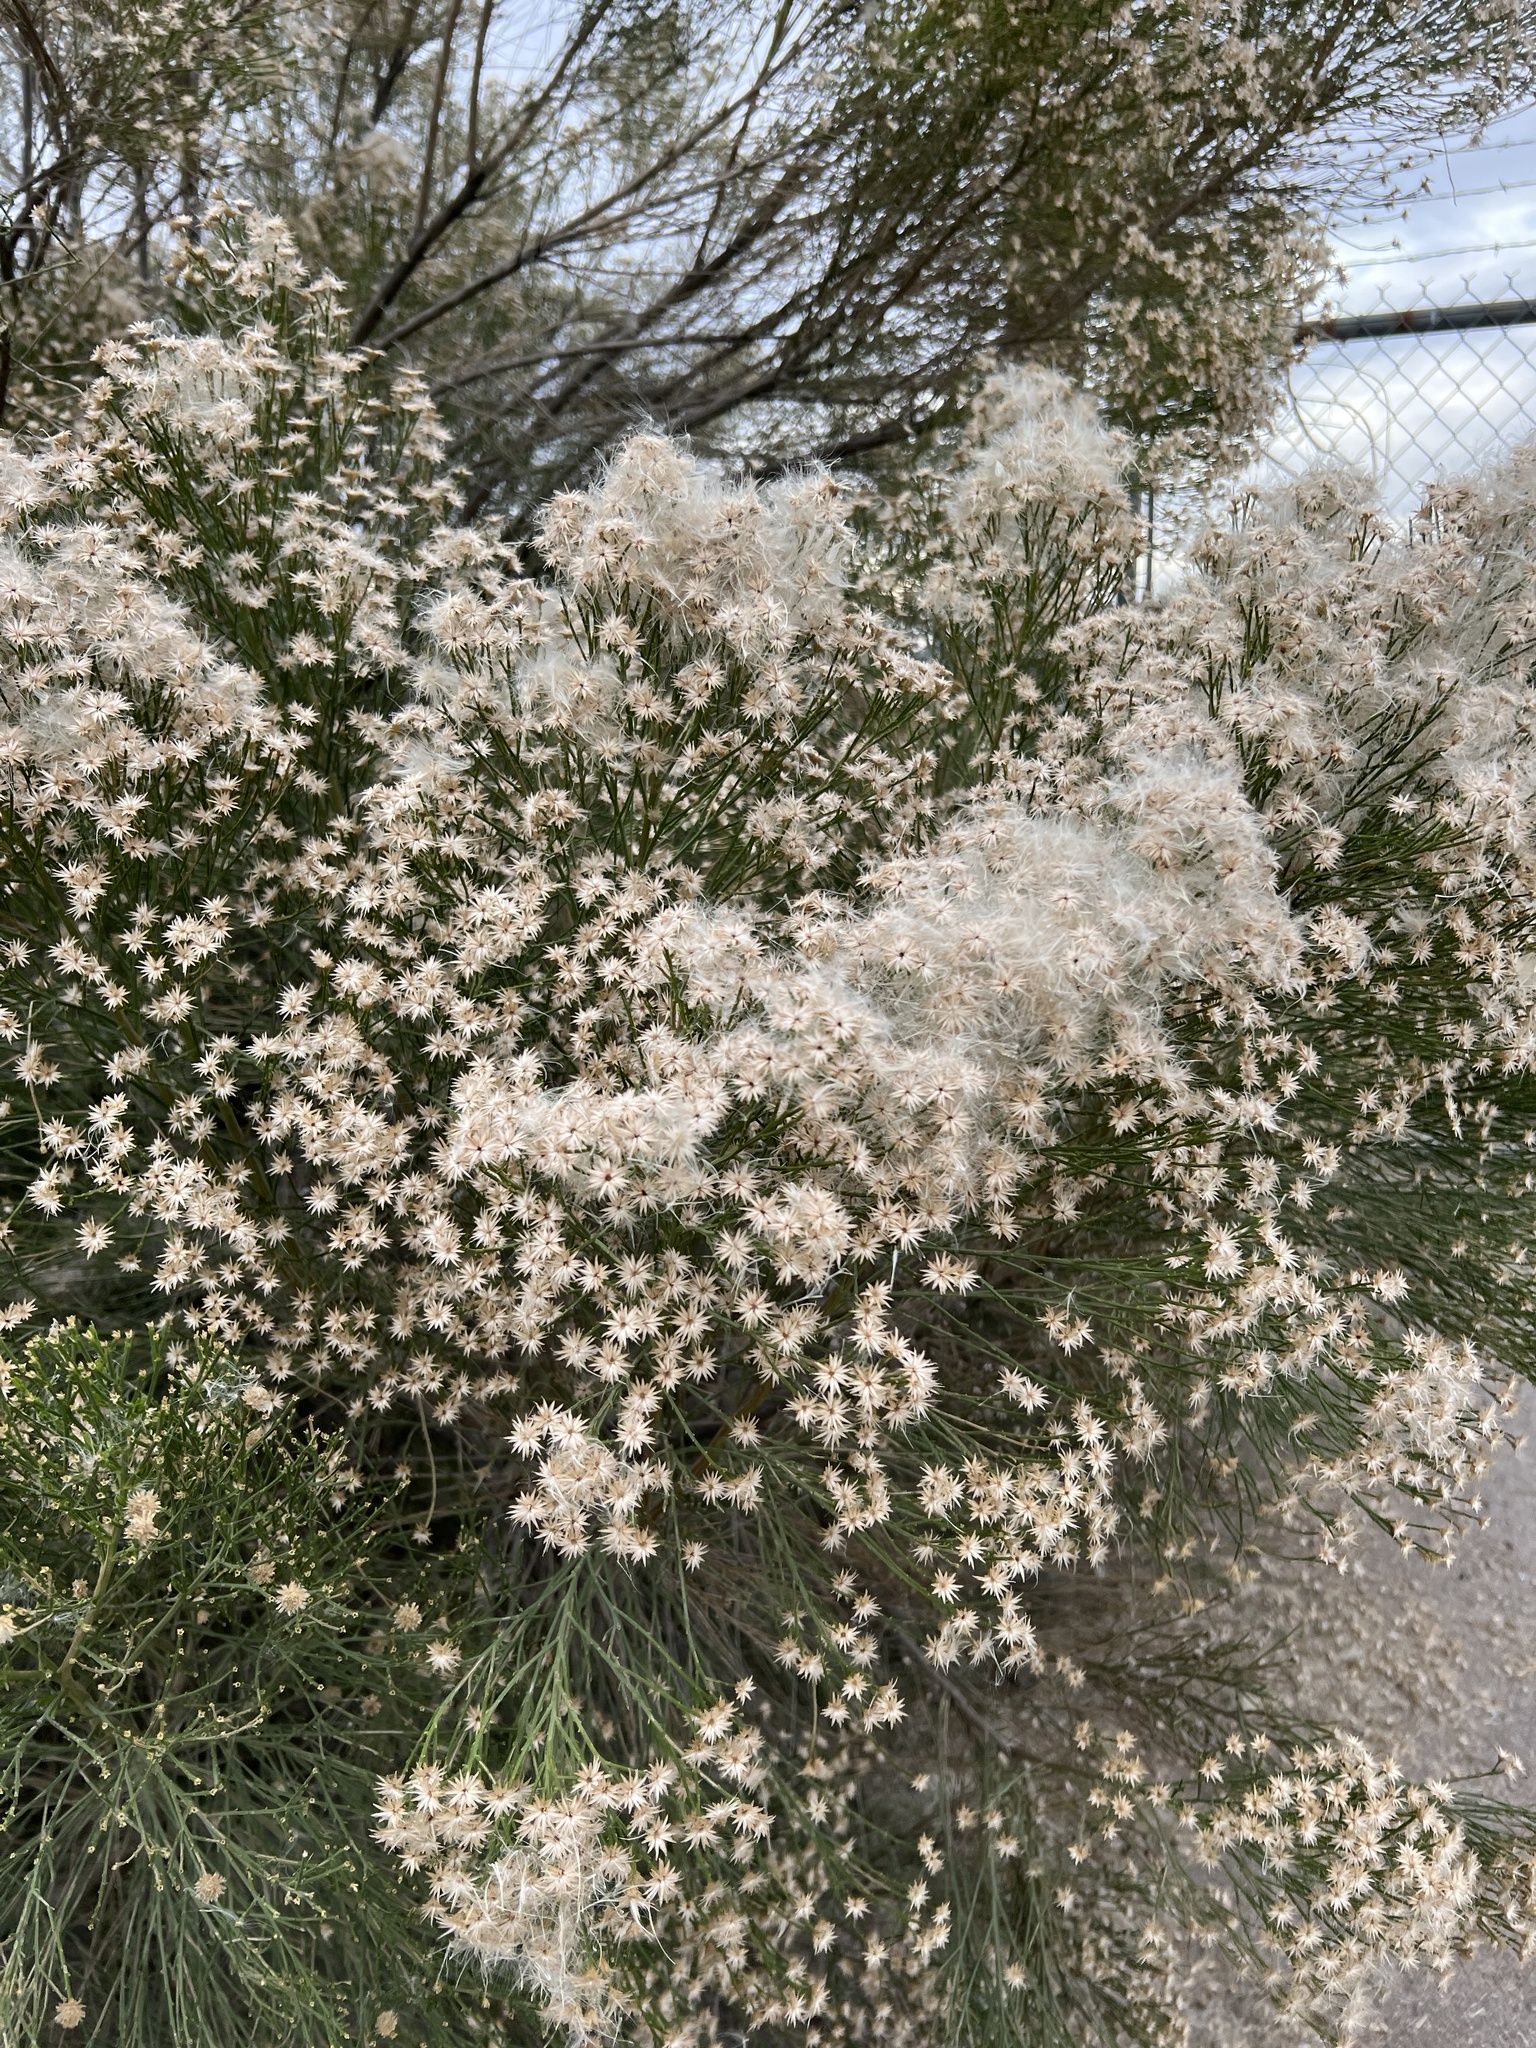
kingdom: Plantae
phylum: Tracheophyta
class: Magnoliopsida
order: Asterales
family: Asteraceae
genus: Baccharis
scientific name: Baccharis sarothroides
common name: Desert-broom
